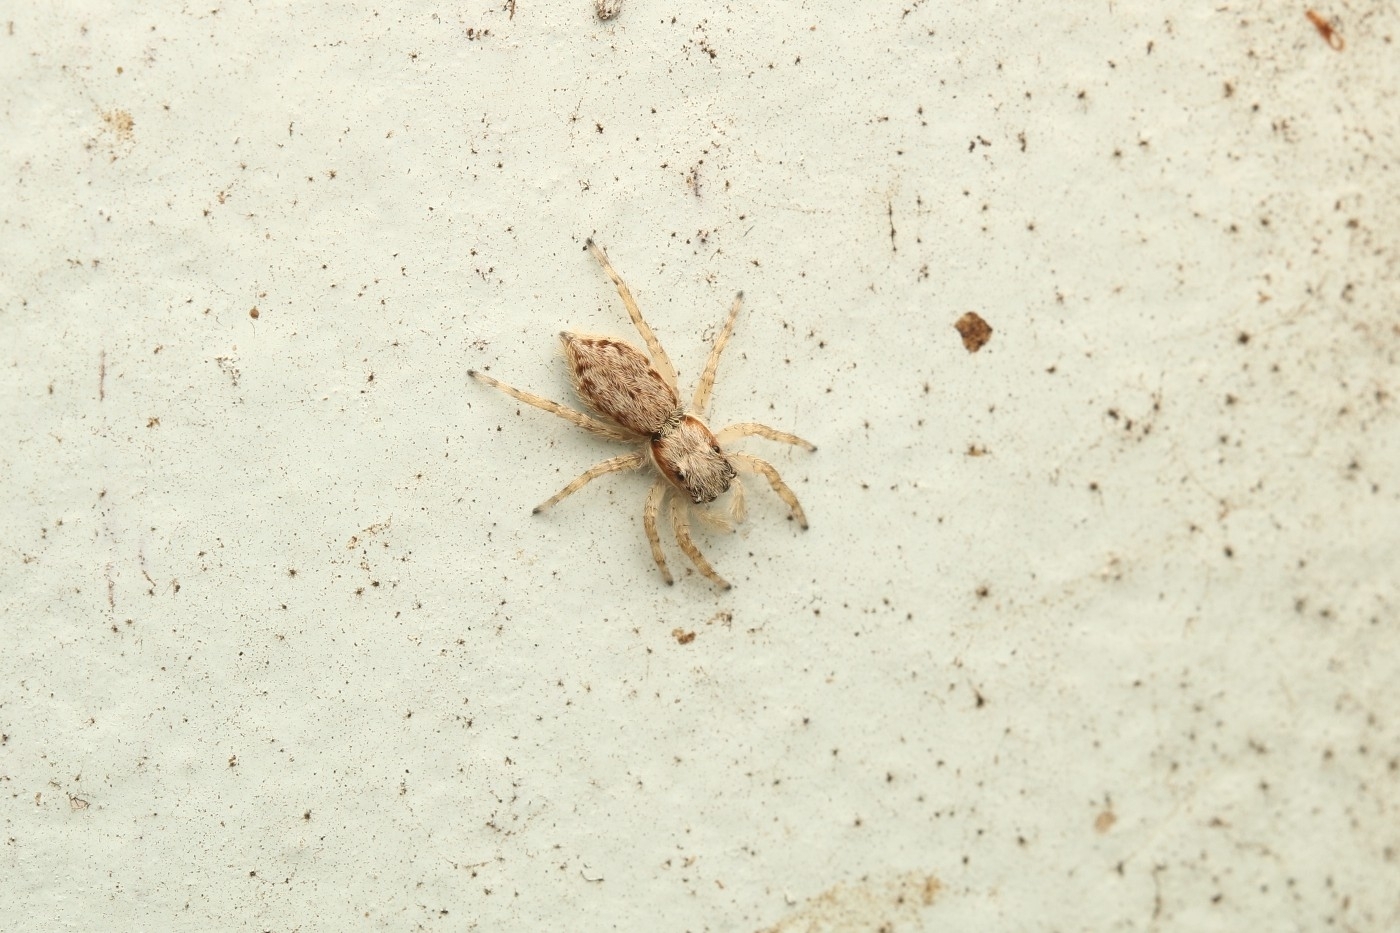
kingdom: Animalia
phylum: Arthropoda
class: Arachnida
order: Araneae
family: Salticidae
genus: Menemerus
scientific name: Menemerus bivittatus
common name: Gray wall jumper
